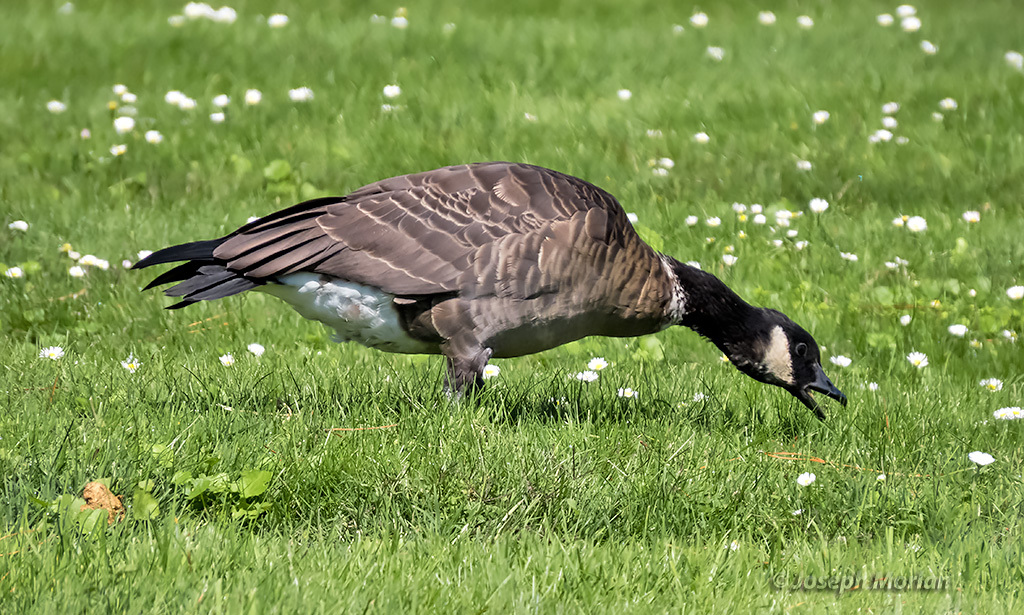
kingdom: Animalia
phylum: Chordata
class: Aves
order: Anseriformes
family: Anatidae
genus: Branta
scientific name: Branta hutchinsii
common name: Cackling goose
